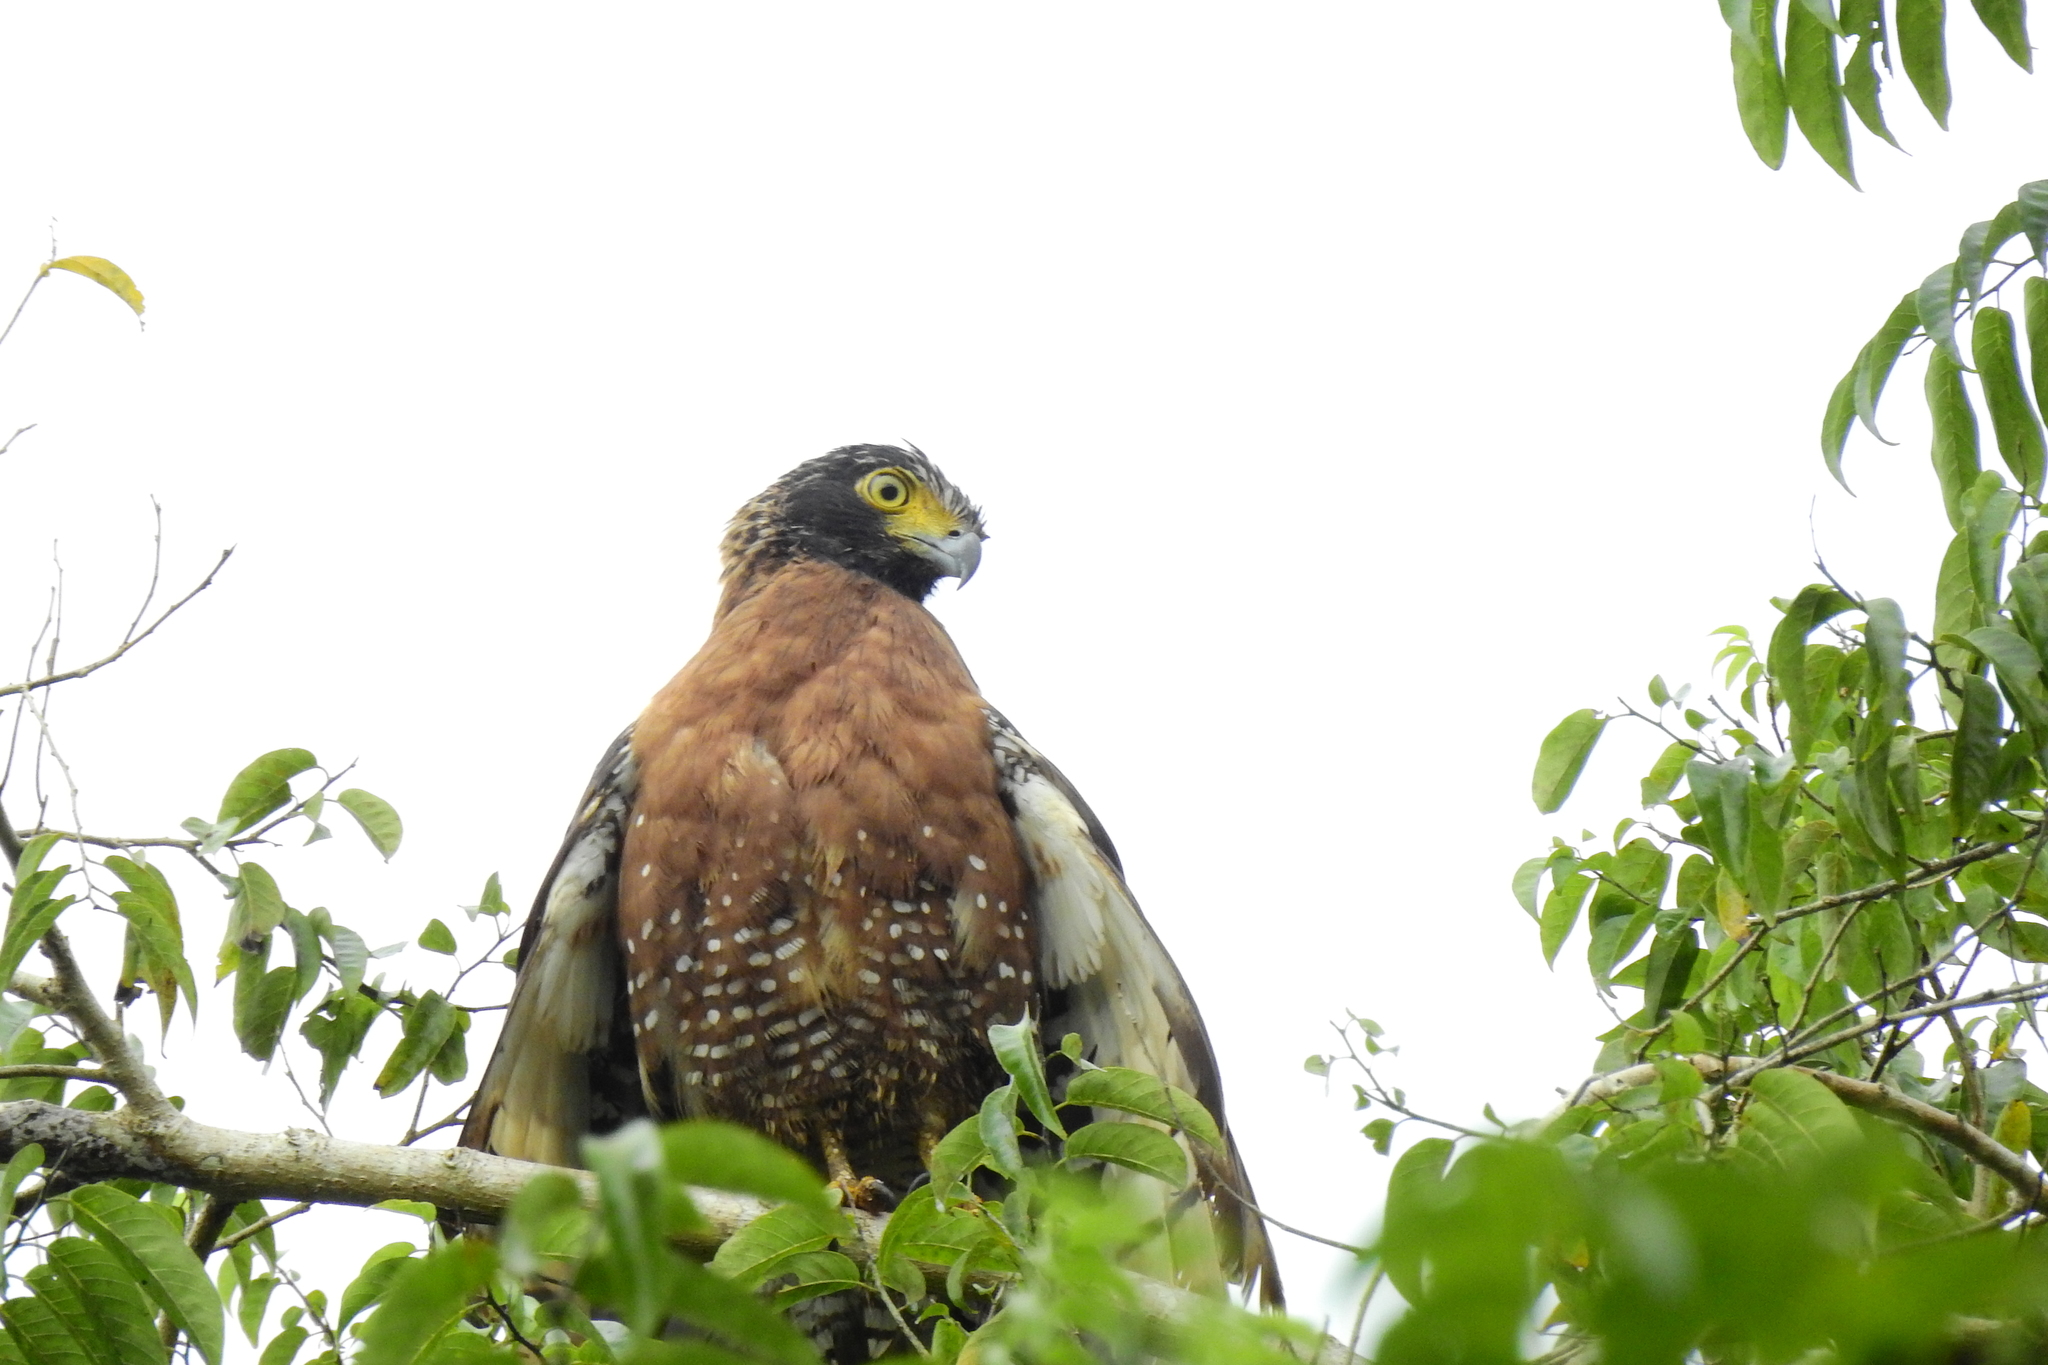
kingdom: Animalia
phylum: Chordata
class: Aves
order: Accipitriformes
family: Accipitridae
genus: Spilornis
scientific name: Spilornis rufipectus
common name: Sulawesi serpent eagle
